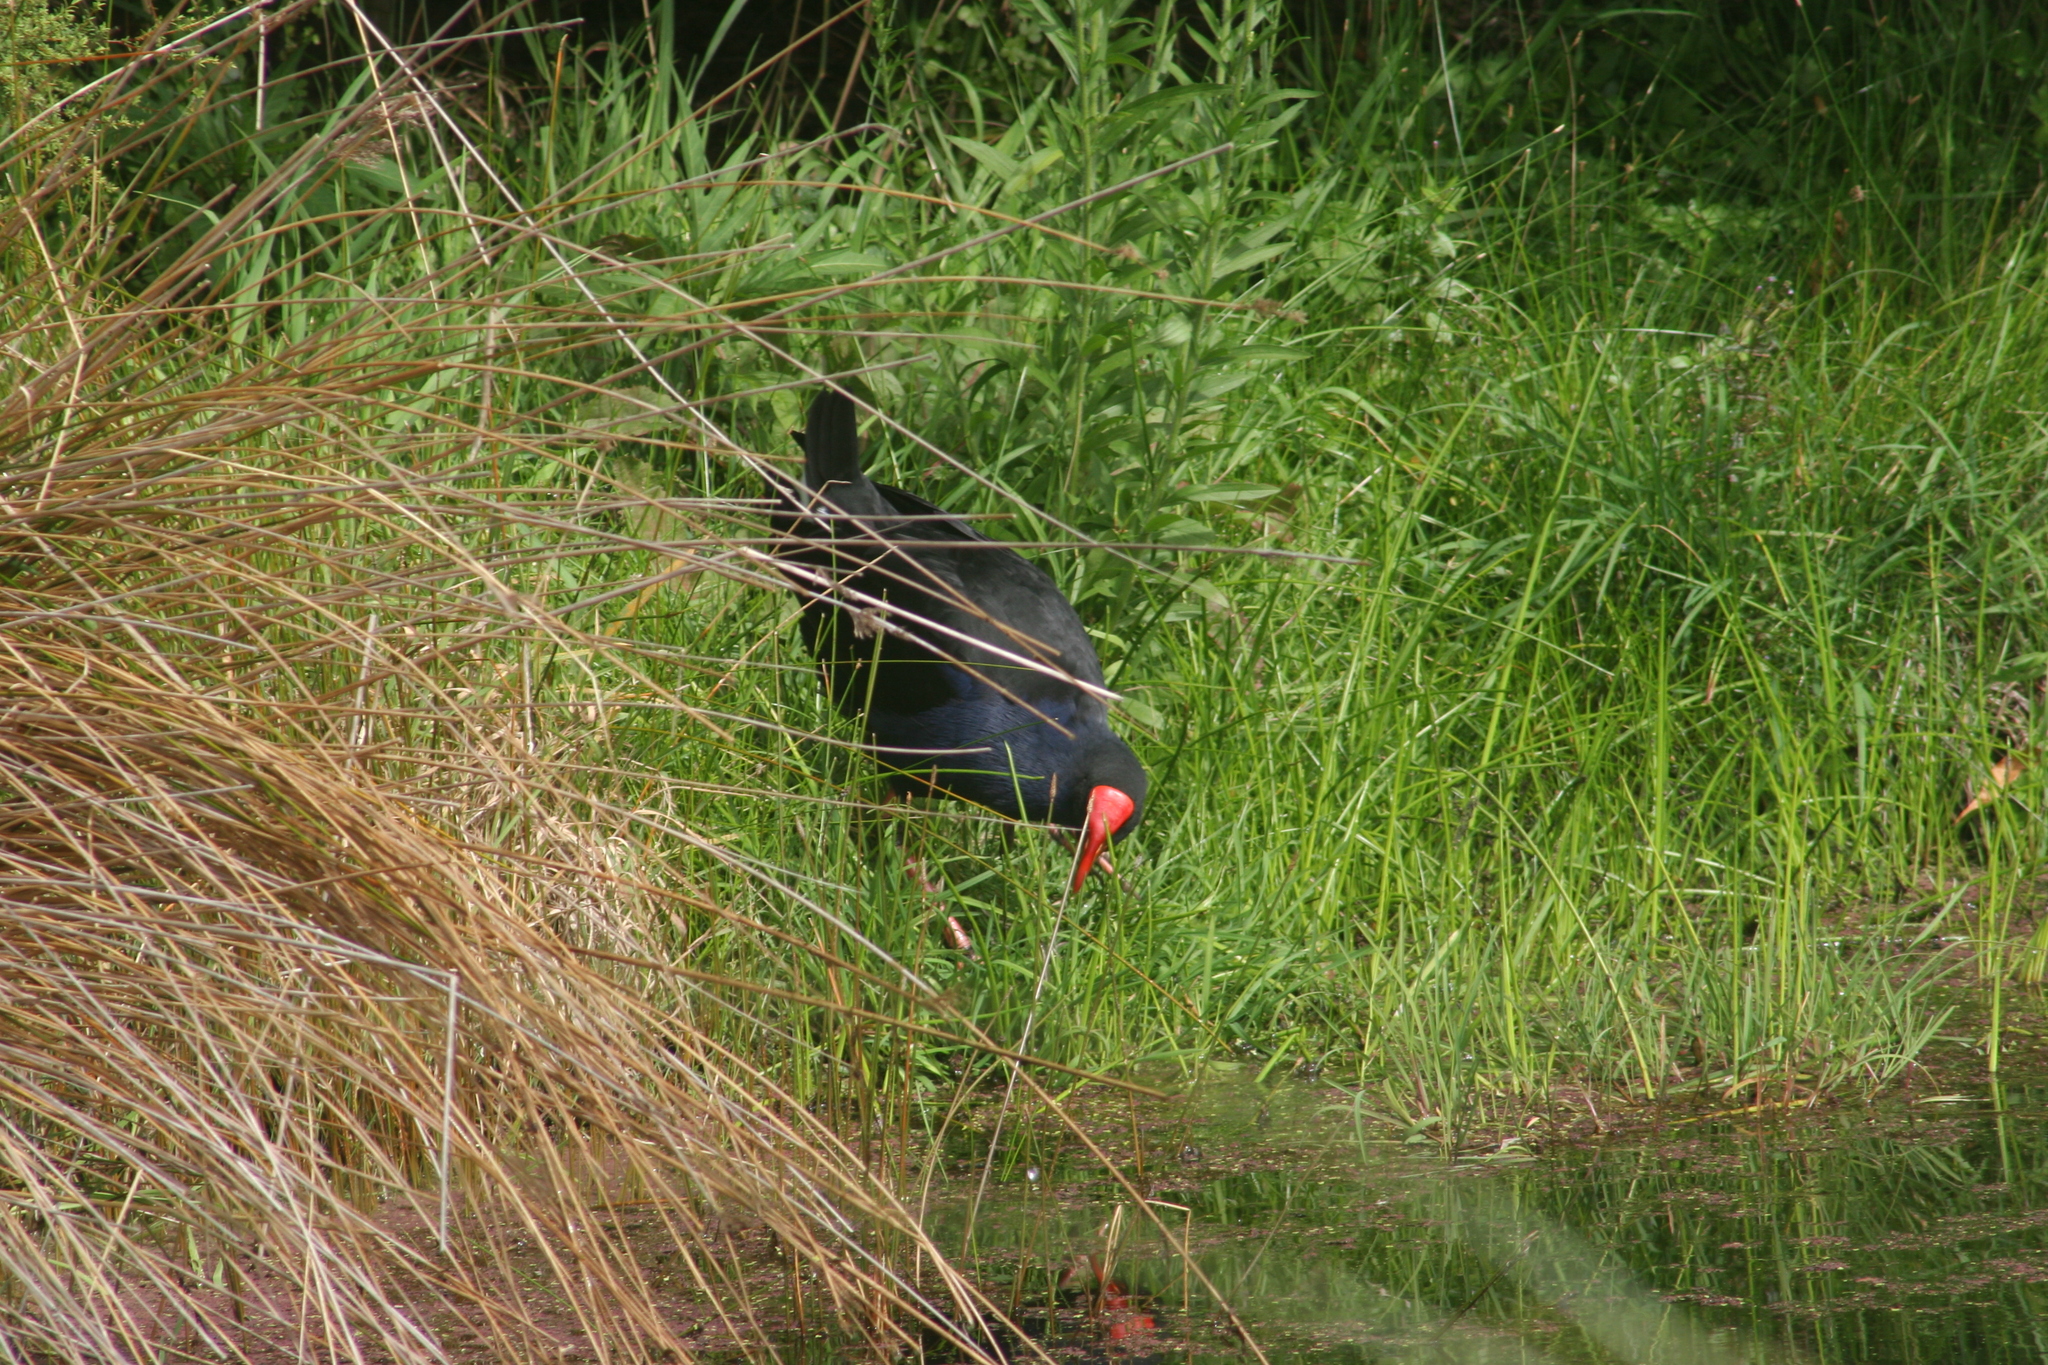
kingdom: Animalia
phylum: Chordata
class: Aves
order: Gruiformes
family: Rallidae
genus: Porphyrio
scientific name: Porphyrio melanotus
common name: Australasian swamphen
